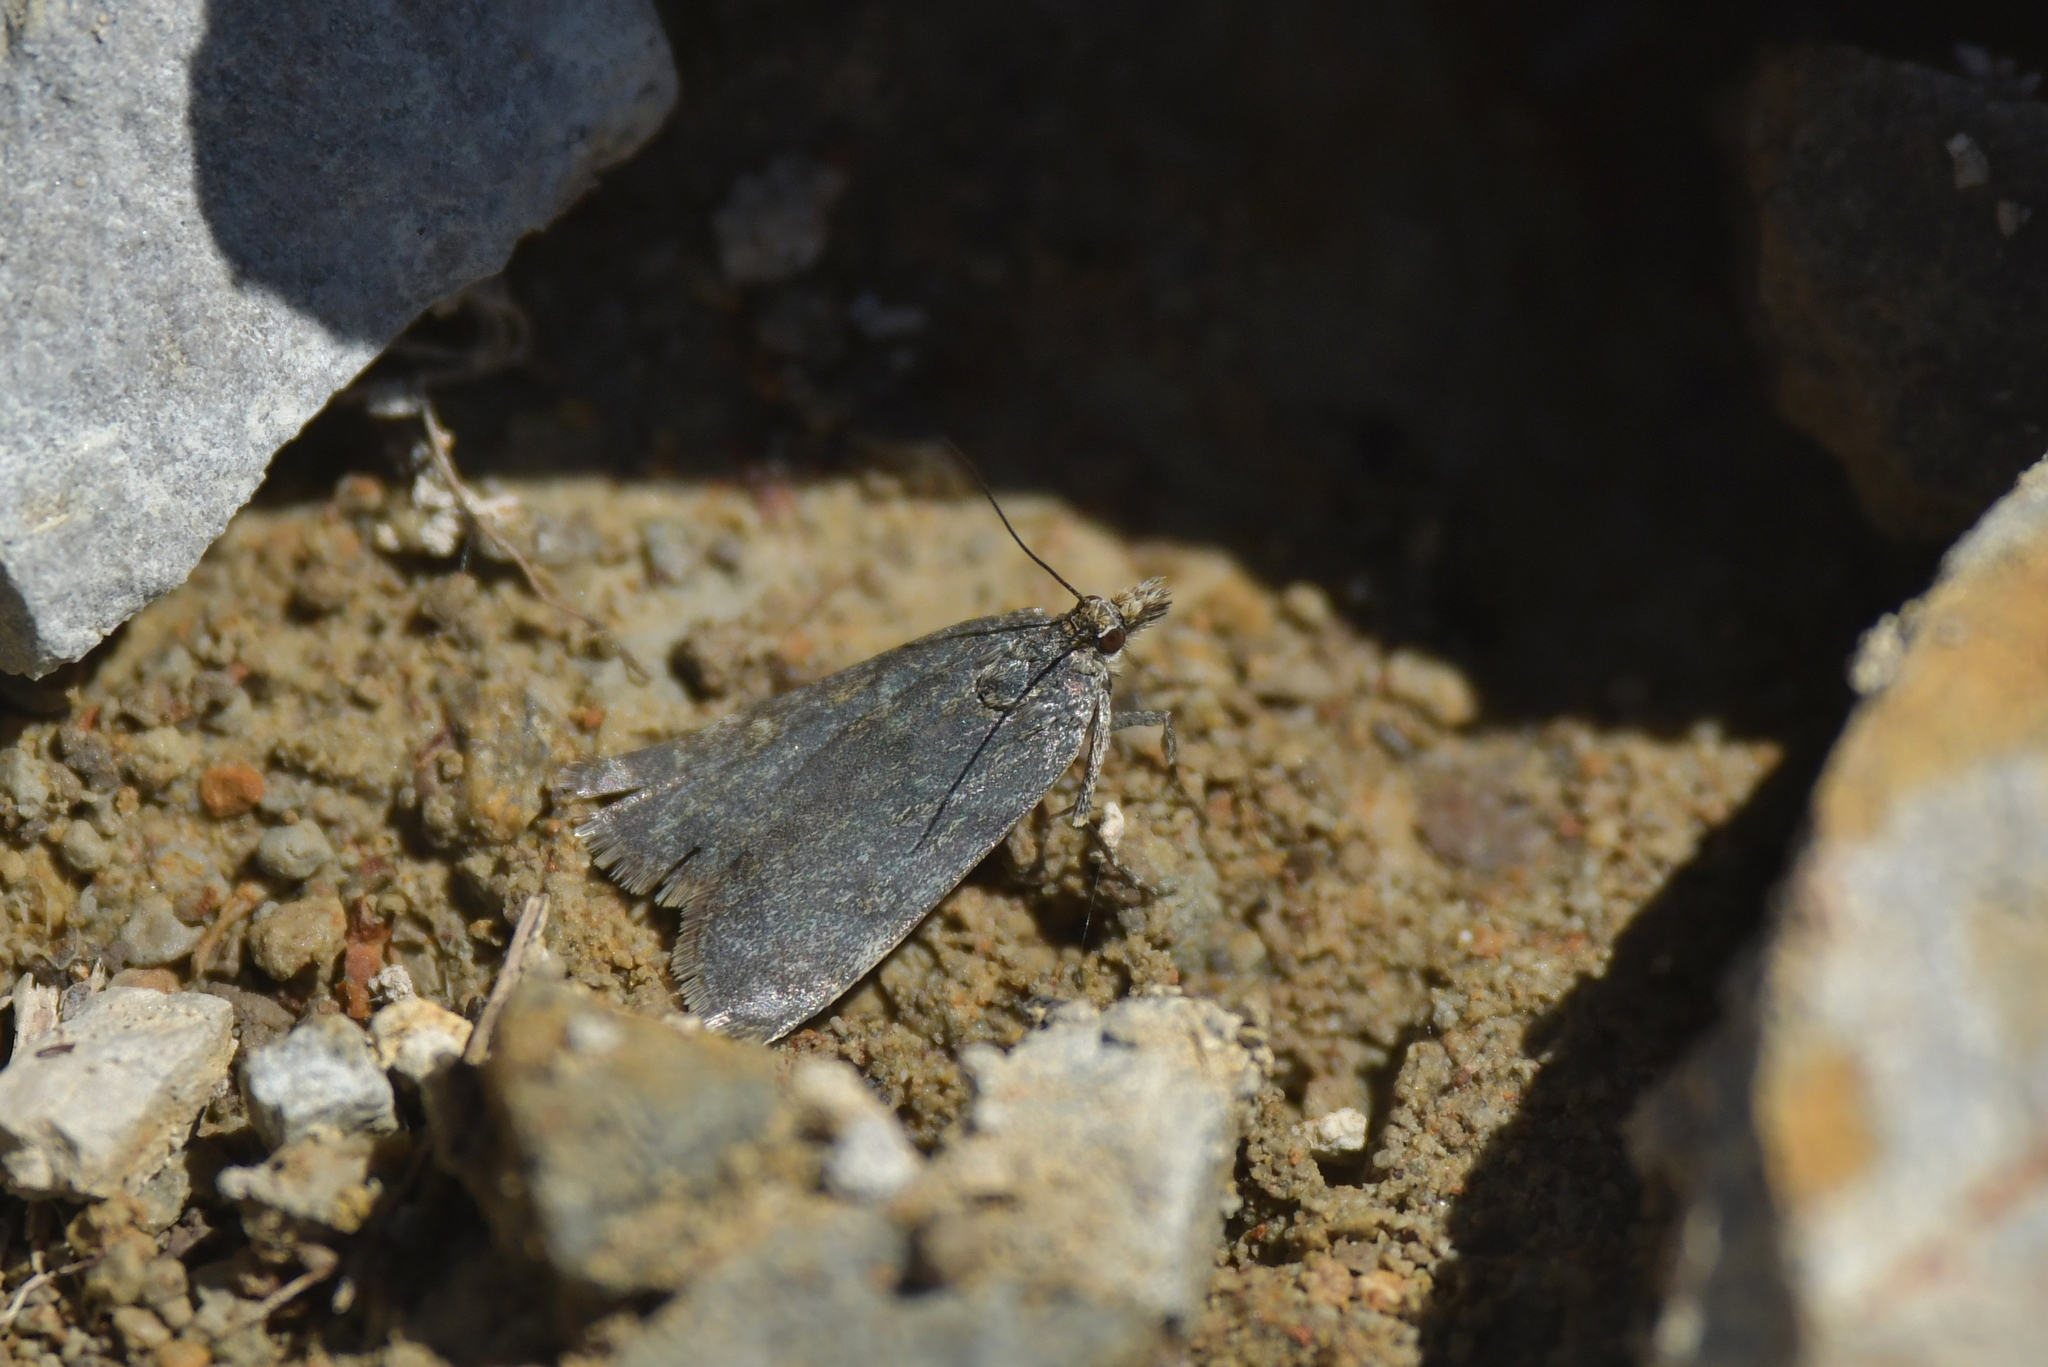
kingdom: Animalia
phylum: Arthropoda
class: Insecta
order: Lepidoptera
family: Crambidae
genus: Eudonia
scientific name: Eudonia cataxesta
